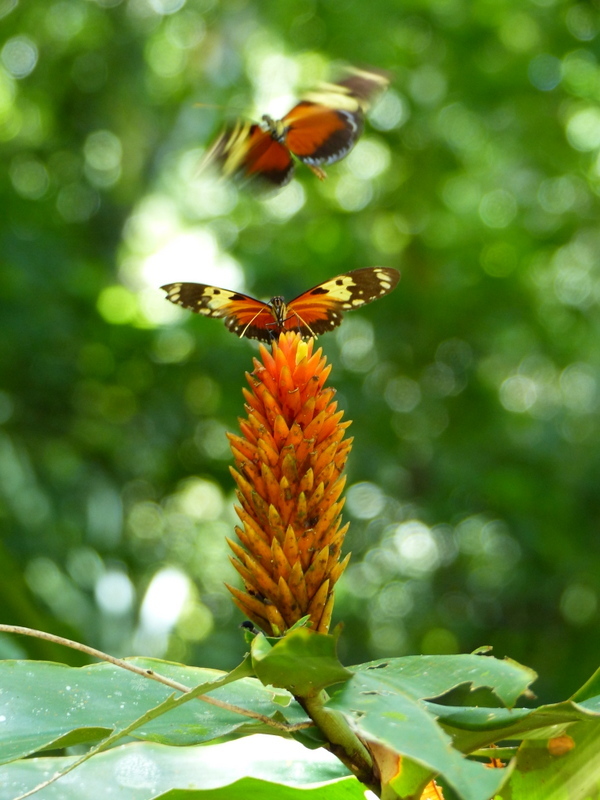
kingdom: Animalia
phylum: Arthropoda
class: Insecta
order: Lepidoptera
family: Nymphalidae
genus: Heliconius
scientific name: Heliconius hecale
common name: Tiger longwing
